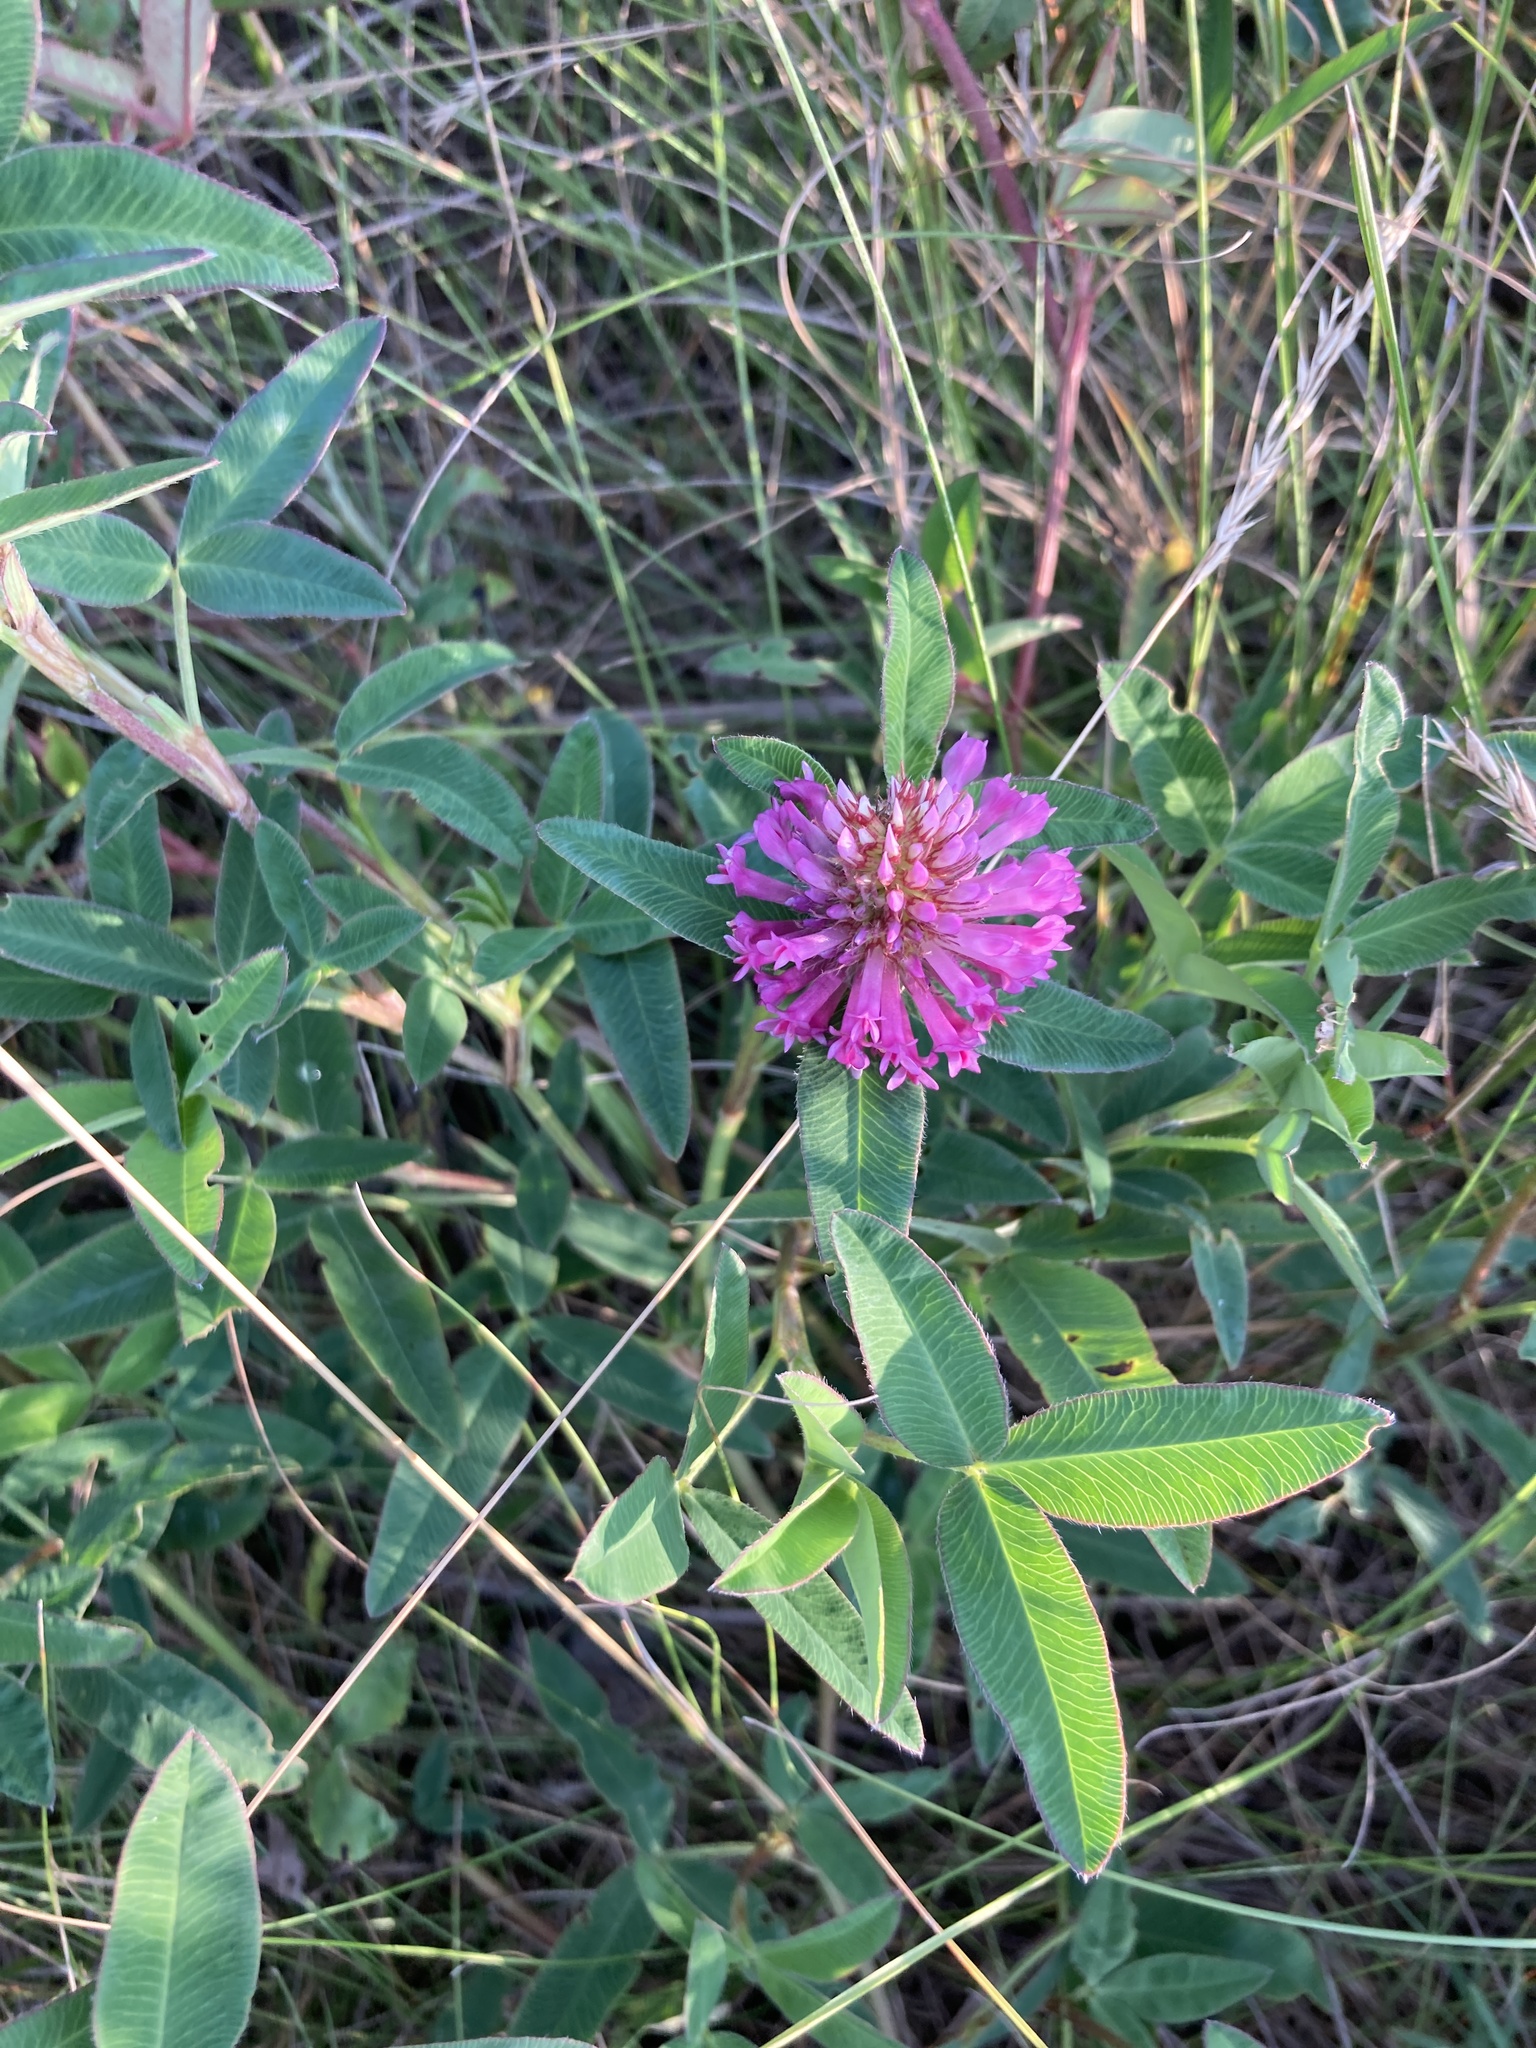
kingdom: Plantae
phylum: Tracheophyta
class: Magnoliopsida
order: Fabales
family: Fabaceae
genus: Trifolium
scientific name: Trifolium medium
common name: Zigzag clover
